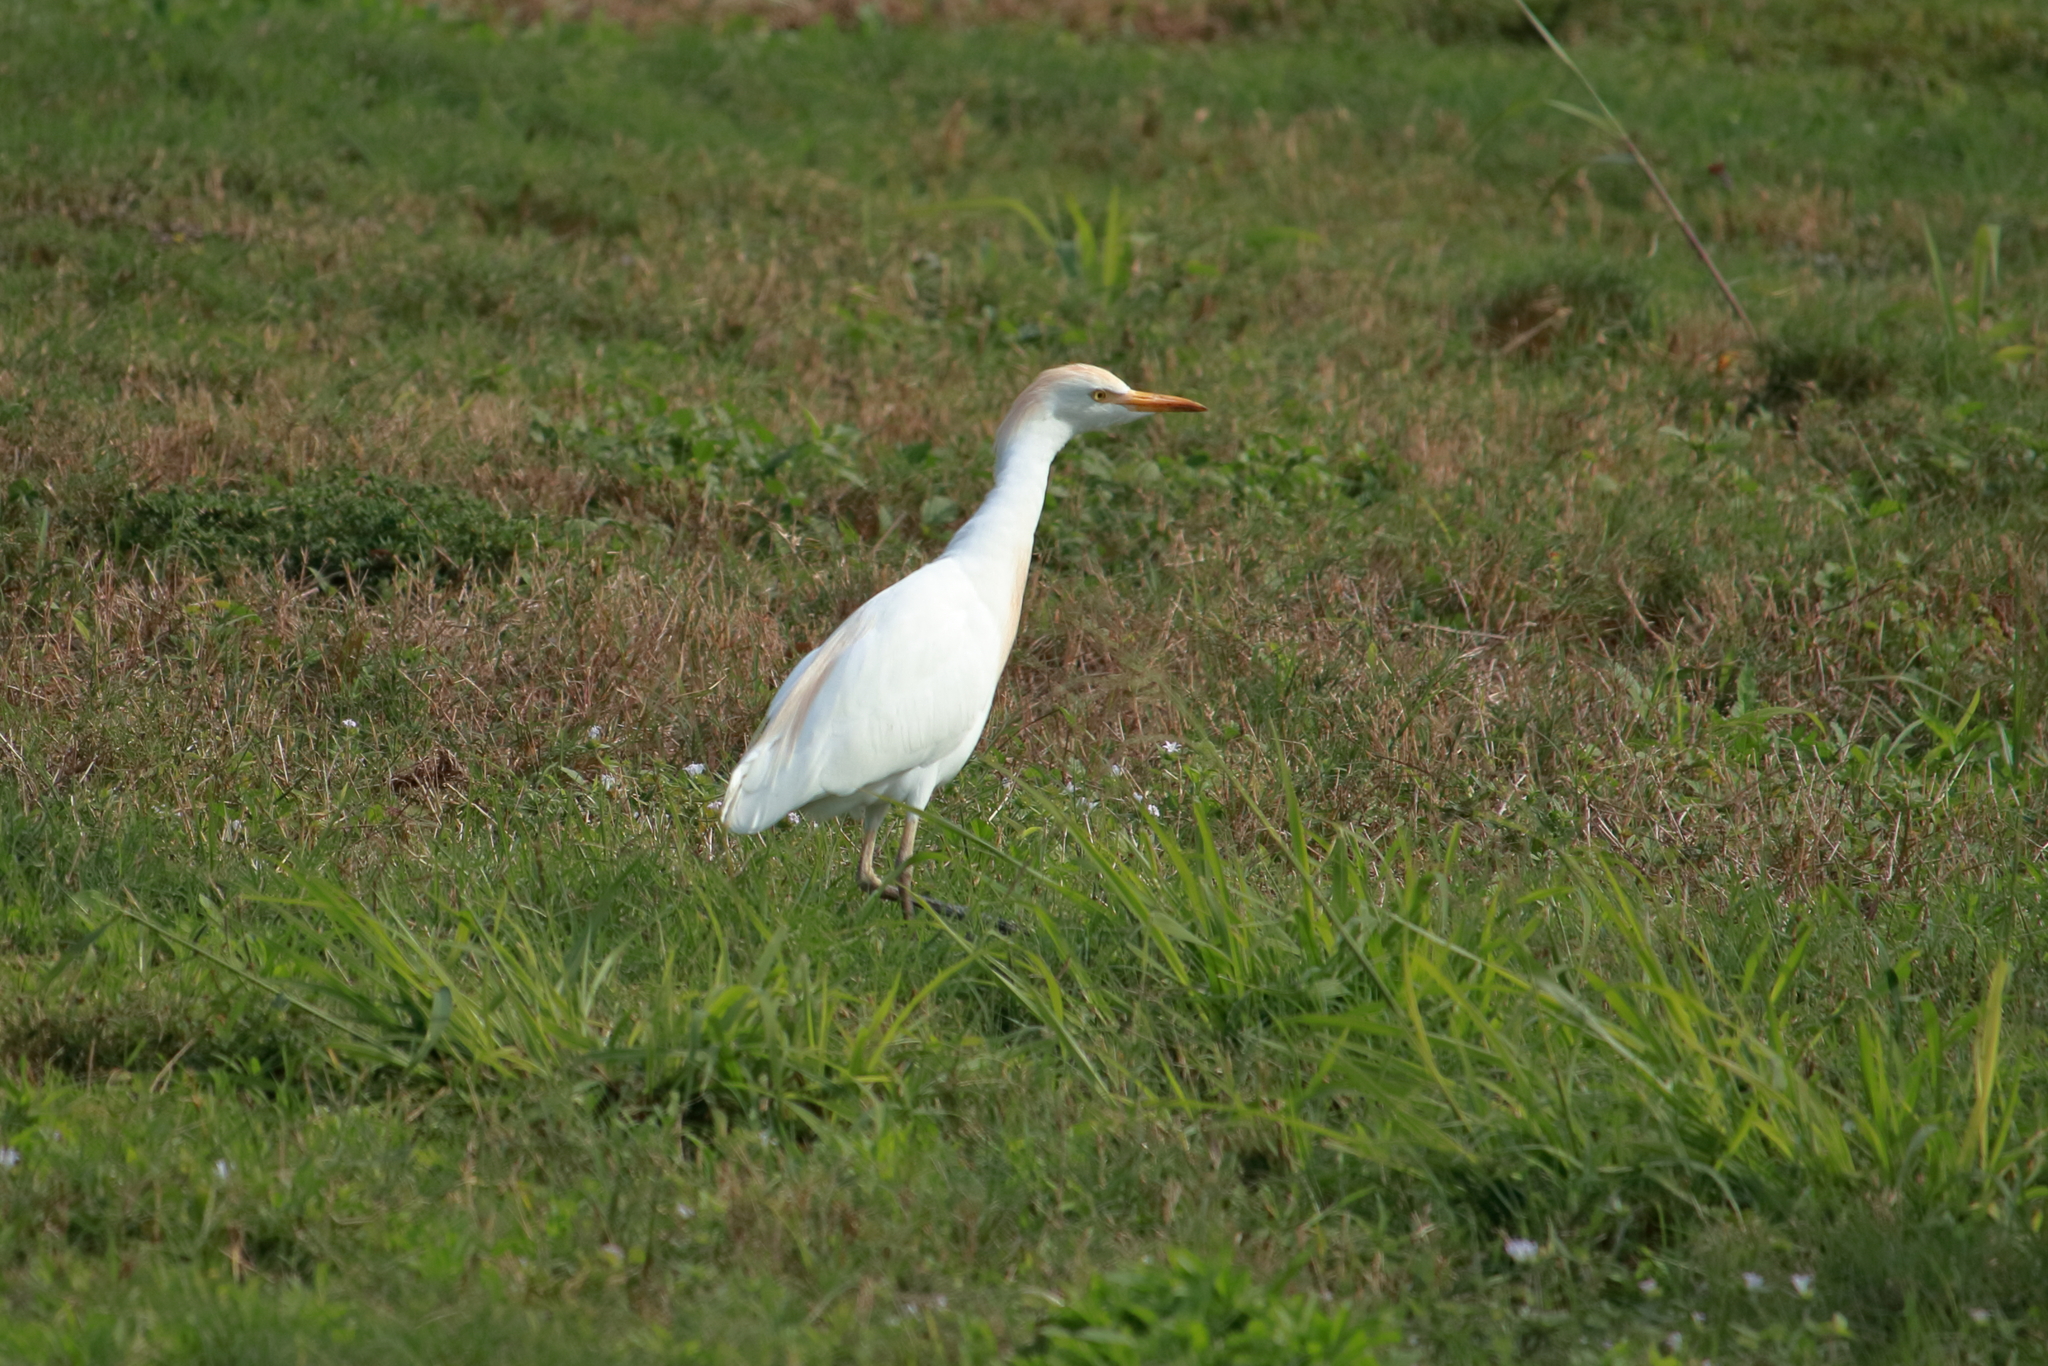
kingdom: Animalia
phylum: Chordata
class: Aves
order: Pelecaniformes
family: Ardeidae
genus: Bubulcus
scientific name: Bubulcus ibis
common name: Cattle egret
